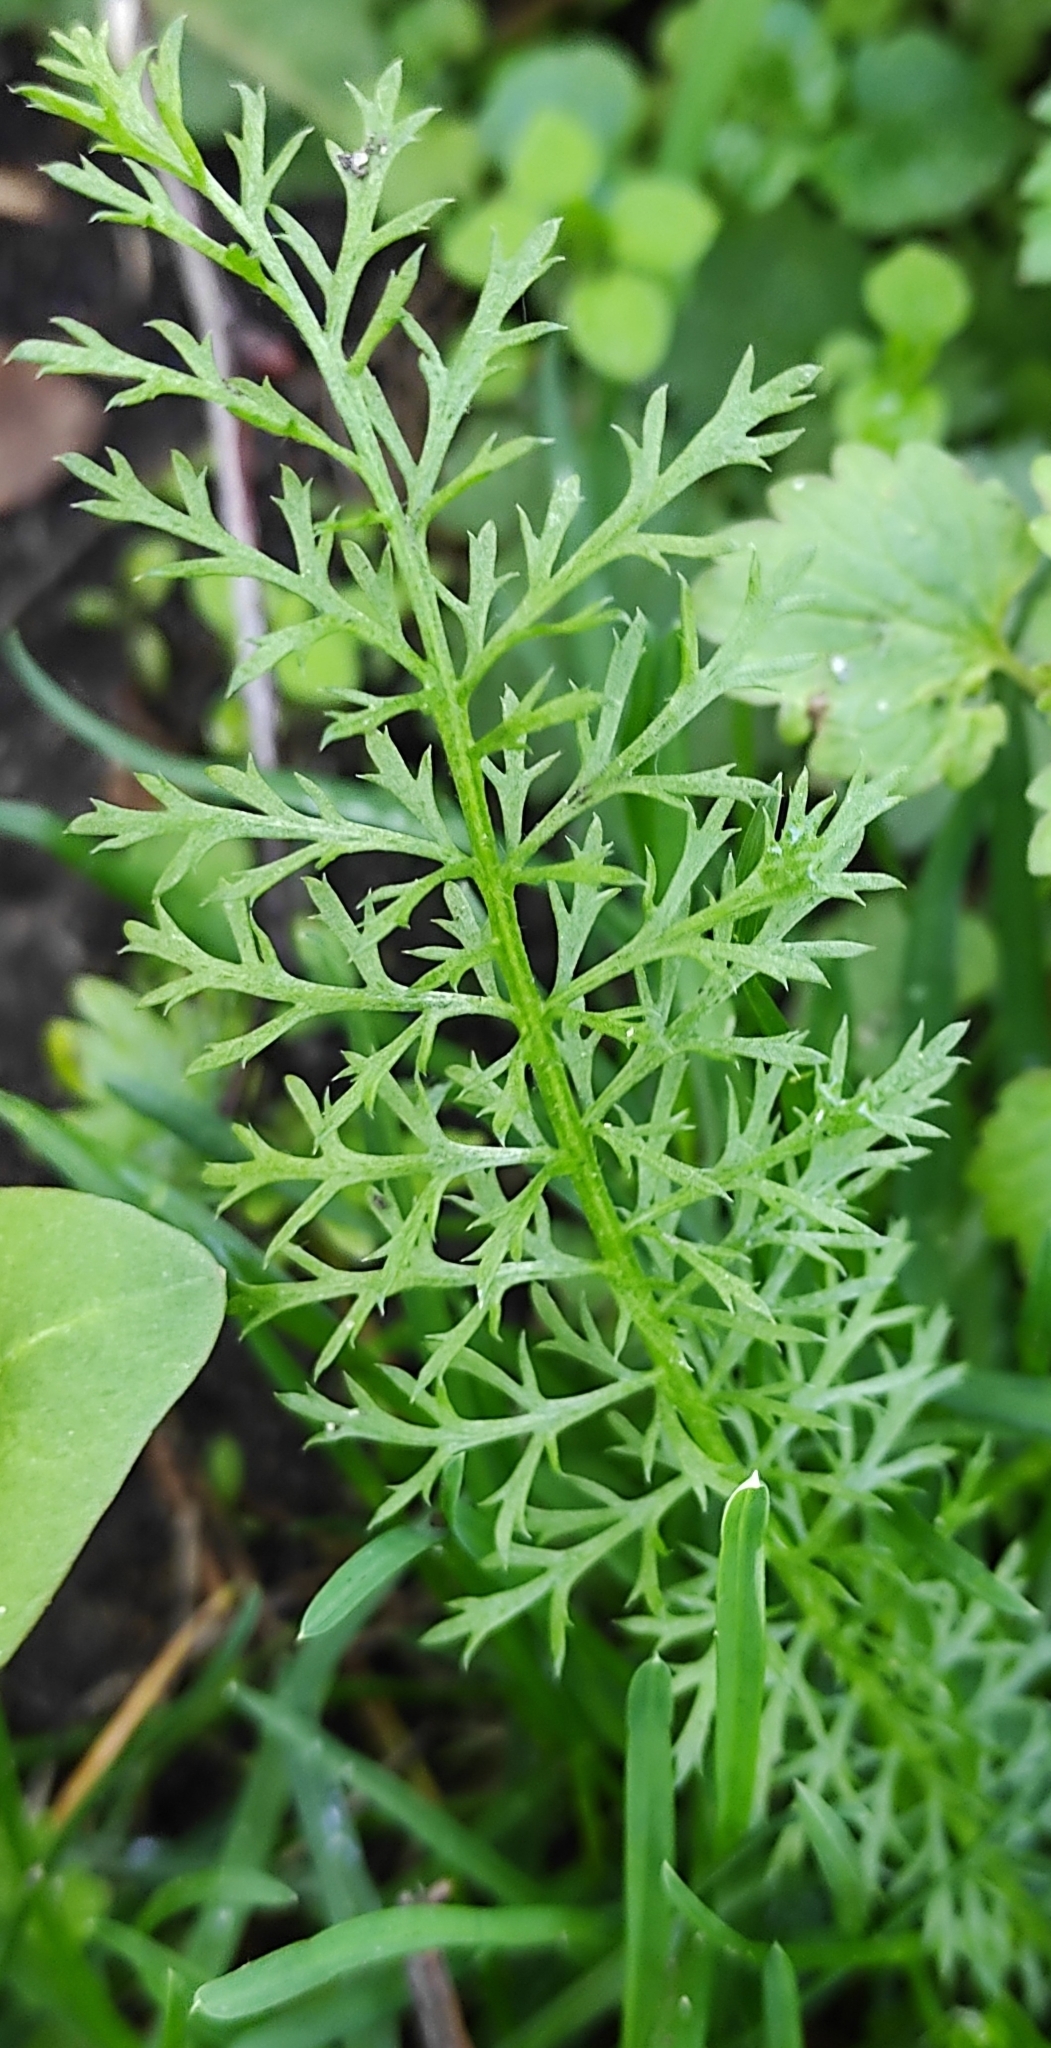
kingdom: Plantae
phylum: Tracheophyta
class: Magnoliopsida
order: Asterales
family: Asteraceae
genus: Achillea
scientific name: Achillea millefolium
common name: Yarrow
